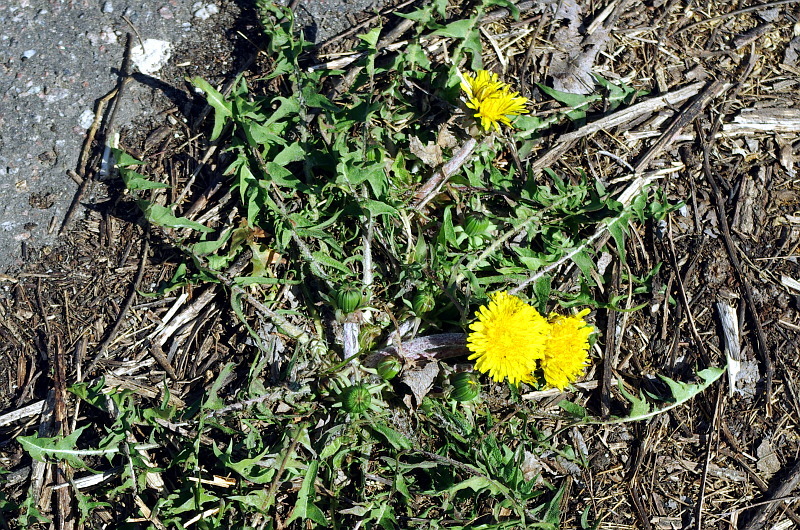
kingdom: Plantae
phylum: Tracheophyta
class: Magnoliopsida
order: Asterales
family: Asteraceae
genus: Taraxacum
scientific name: Taraxacum officinale
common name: Common dandelion
